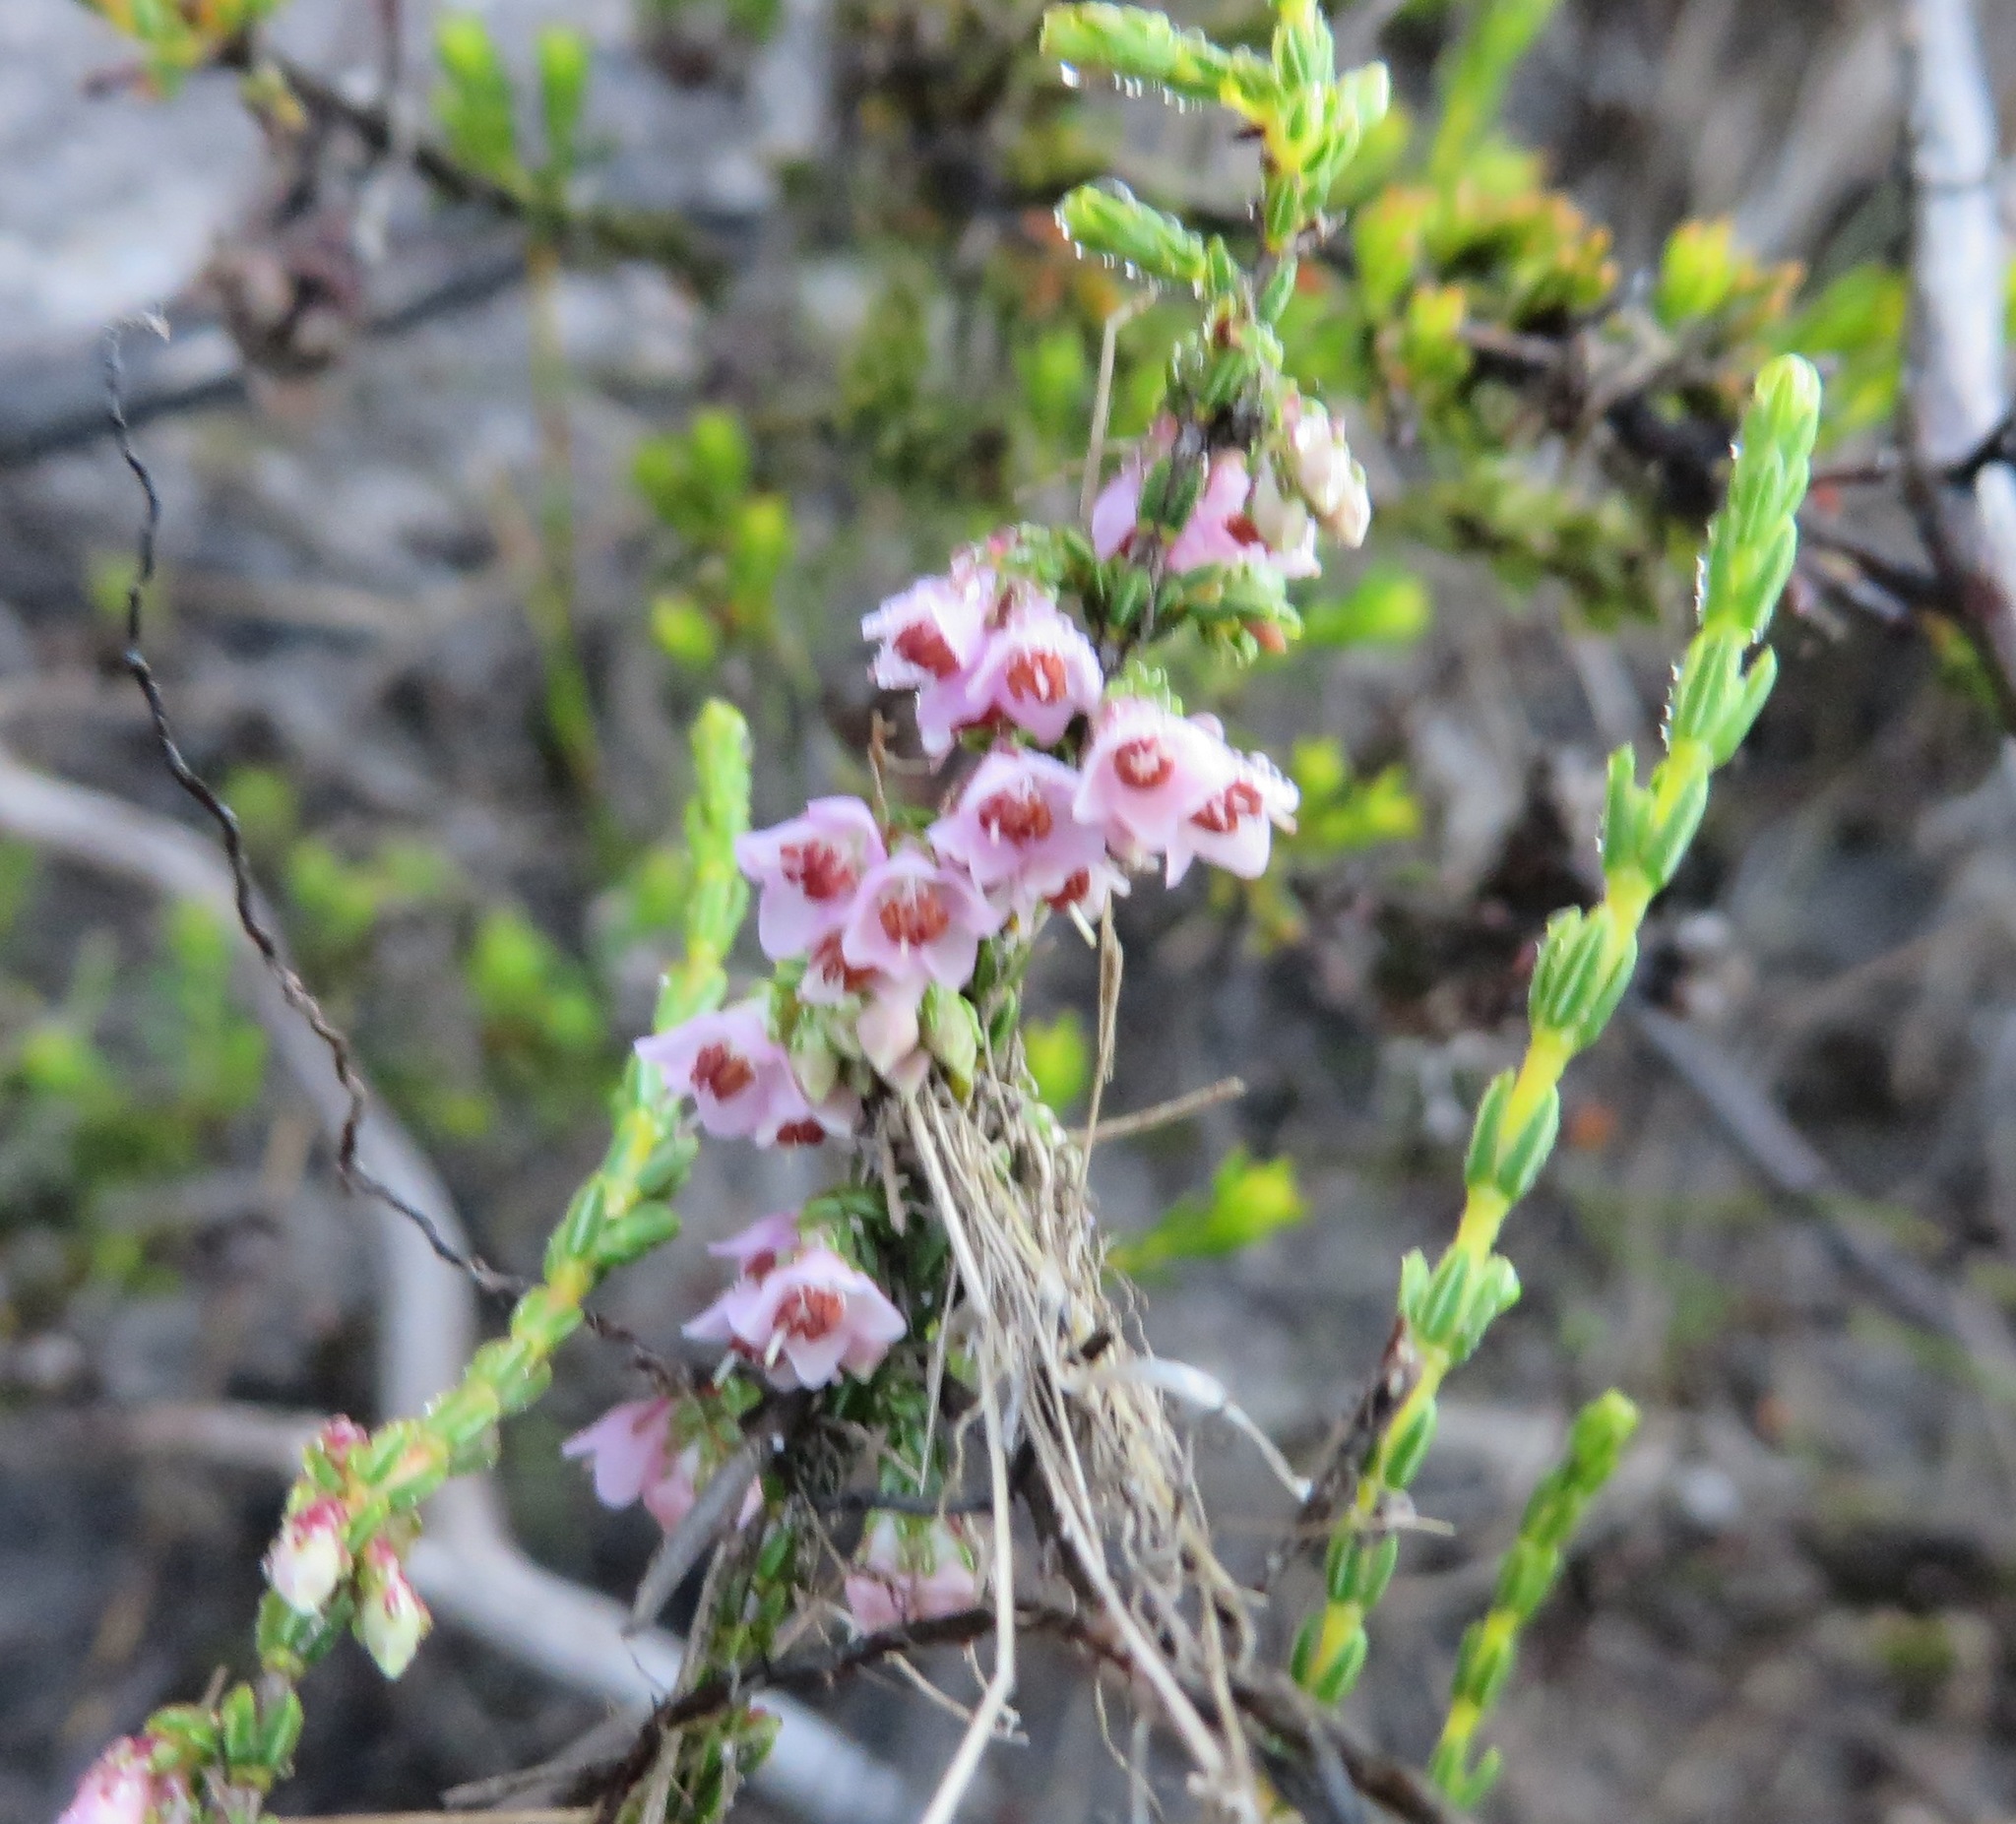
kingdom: Plantae
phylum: Tracheophyta
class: Magnoliopsida
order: Ericales
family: Ericaceae
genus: Erica
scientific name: Erica argentea
